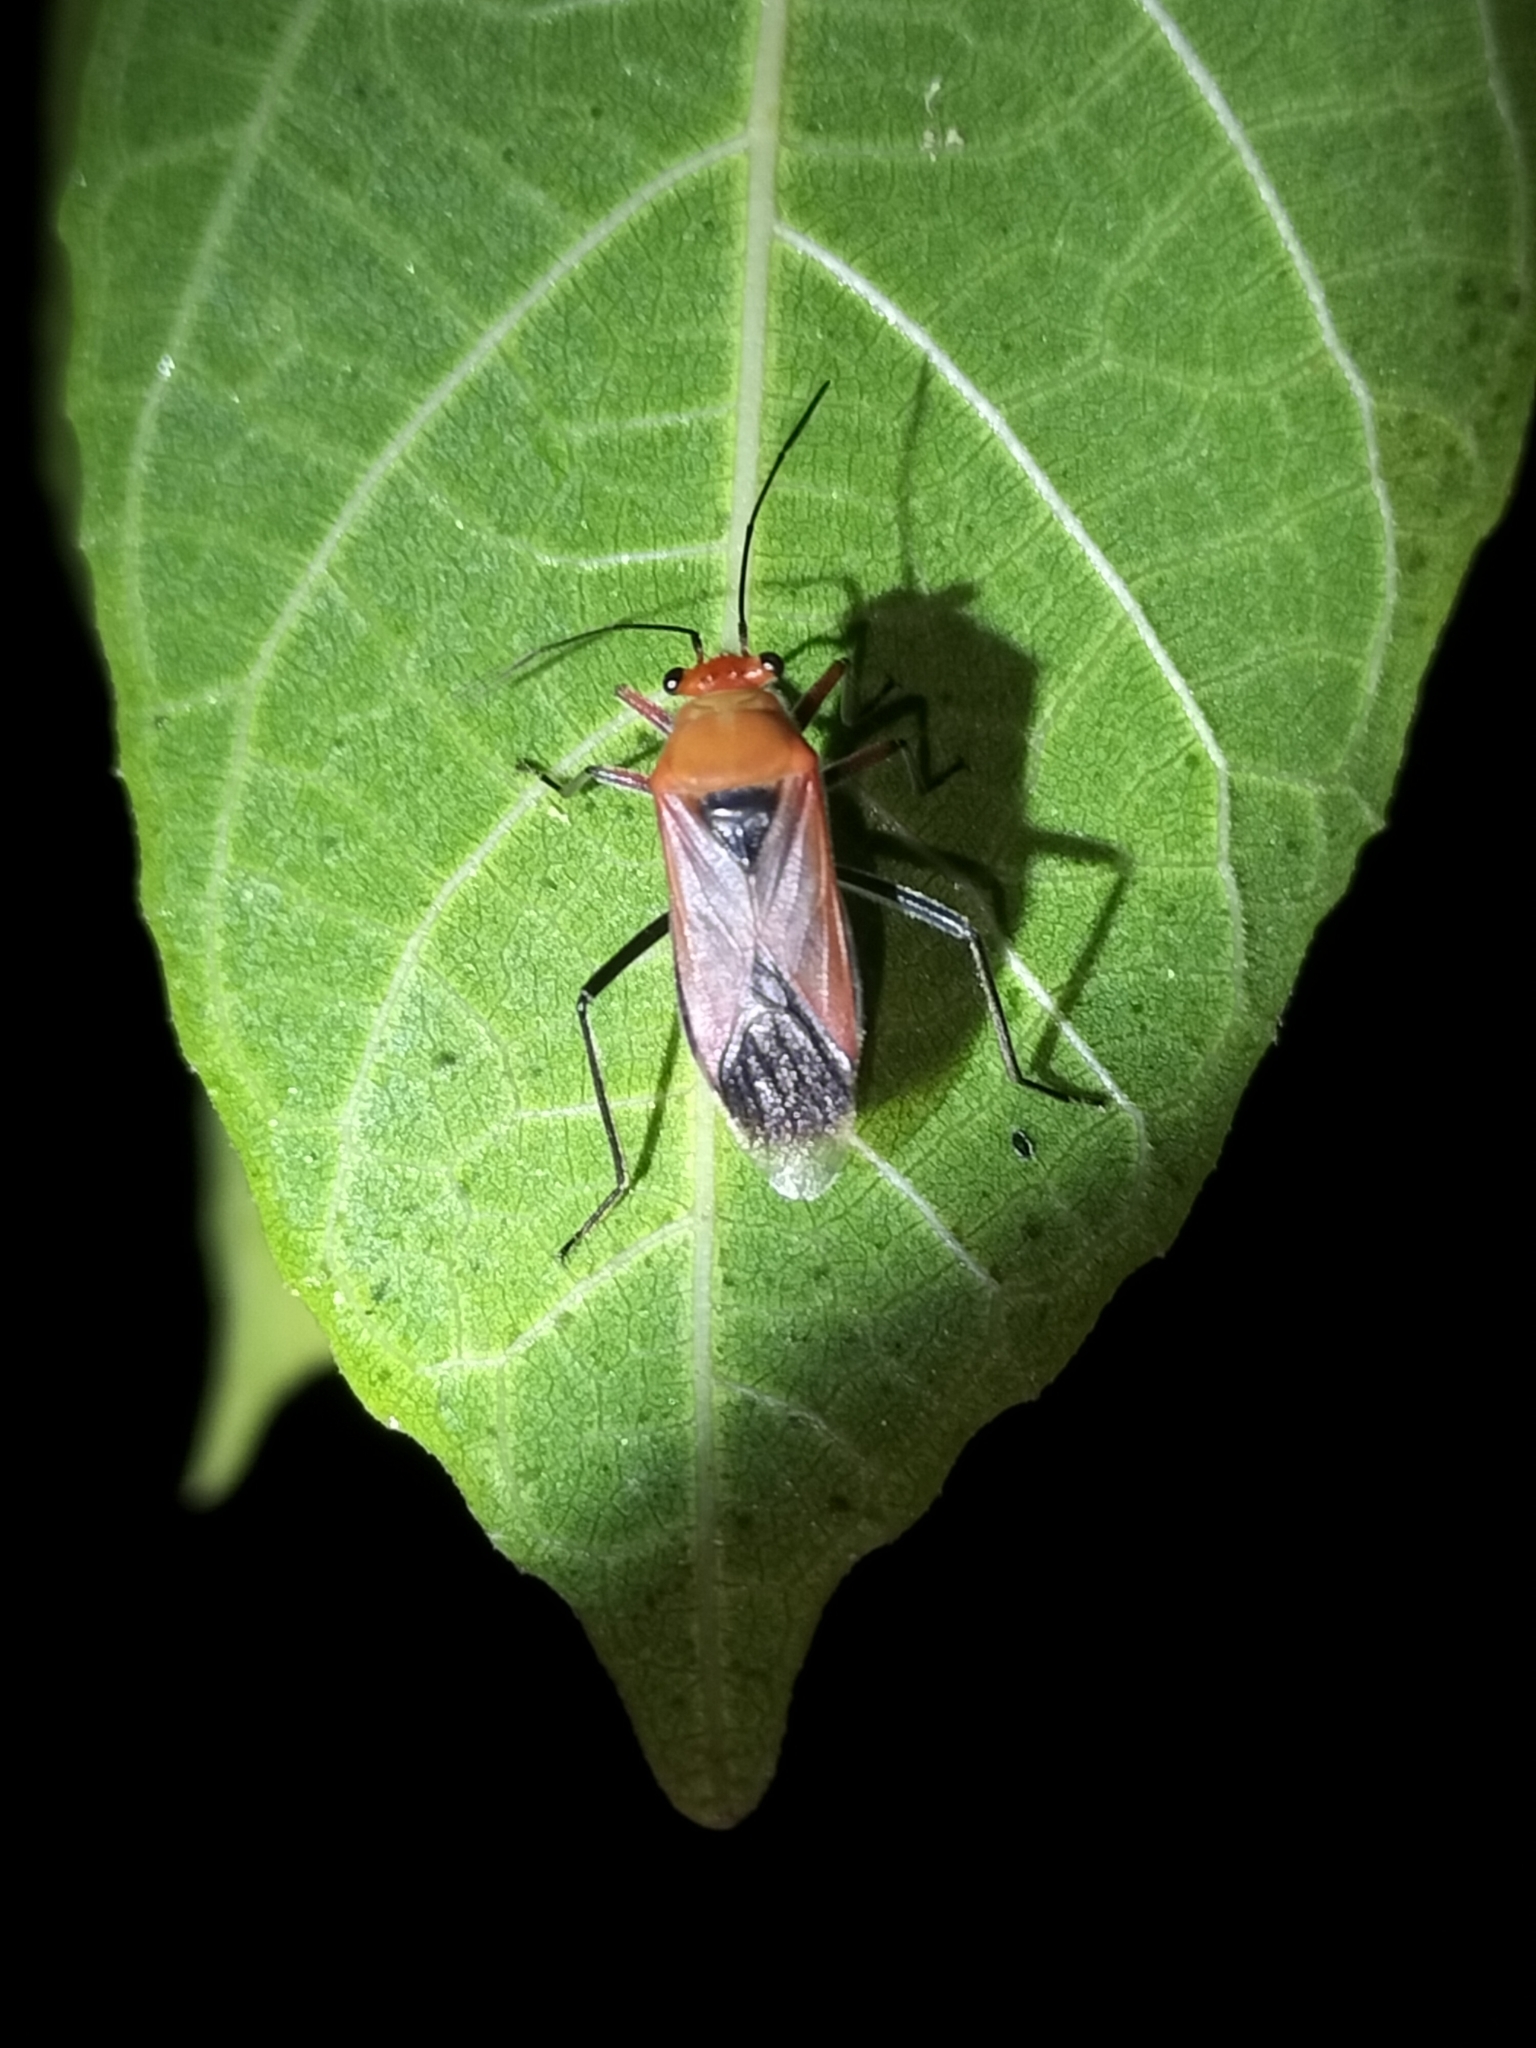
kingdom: Animalia
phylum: Arthropoda
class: Insecta
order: Hemiptera
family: Lygaeidae
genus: Astacops
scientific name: Astacops viridiventris
